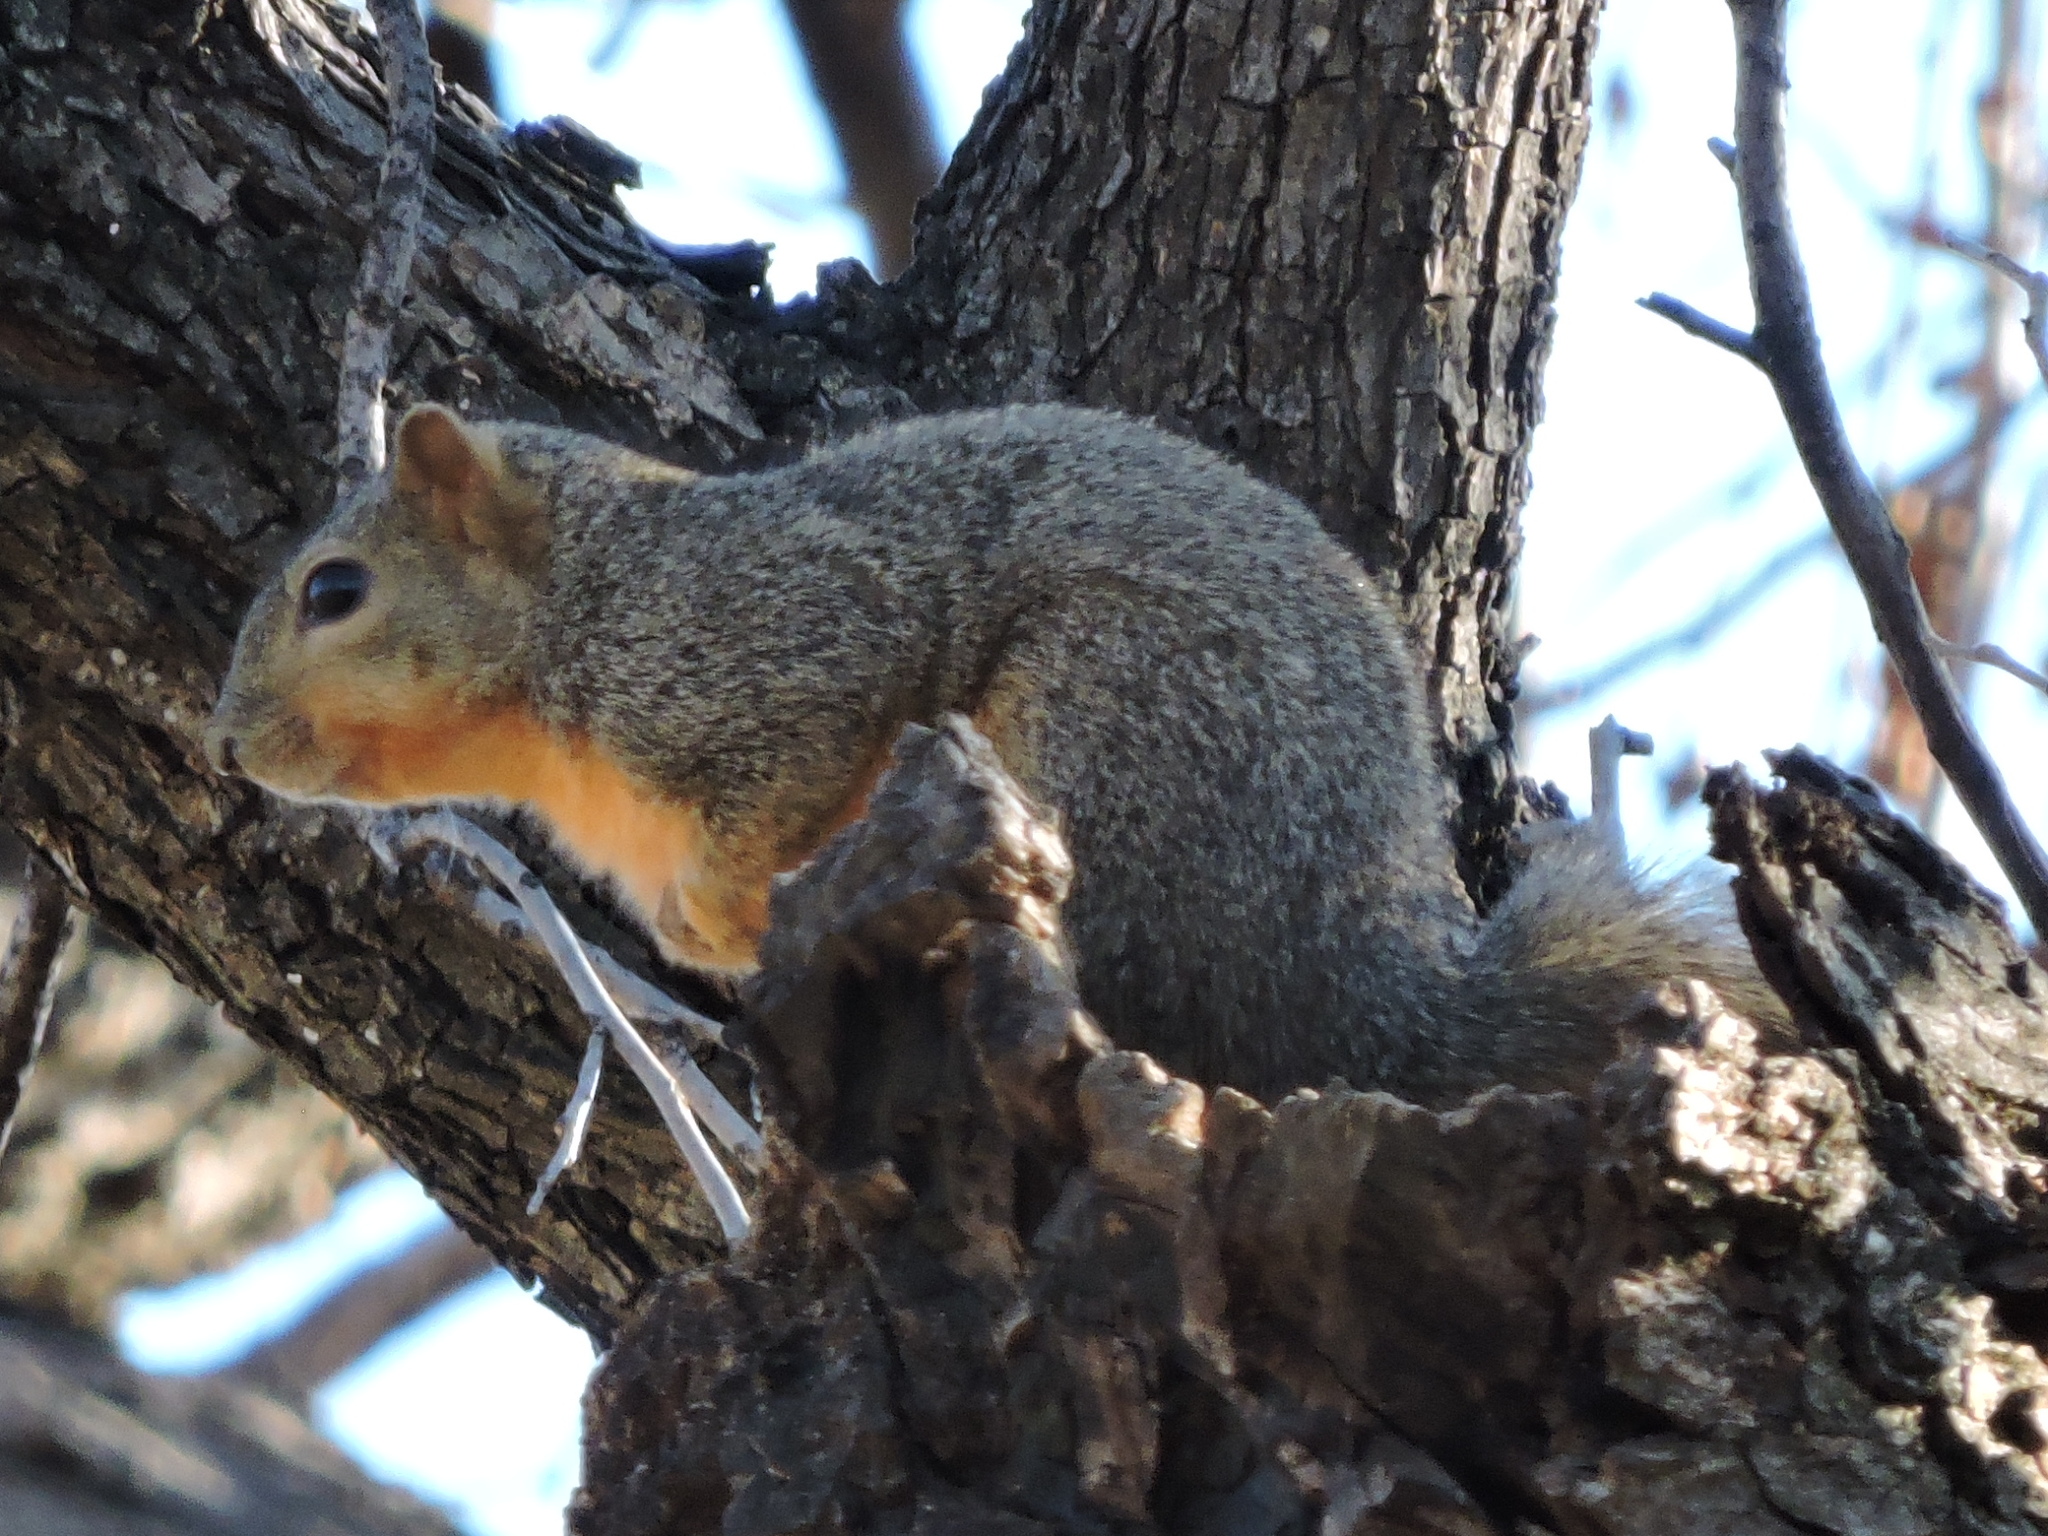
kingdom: Animalia
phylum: Chordata
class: Mammalia
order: Rodentia
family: Sciuridae
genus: Sciurus
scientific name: Sciurus niger
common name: Fox squirrel
